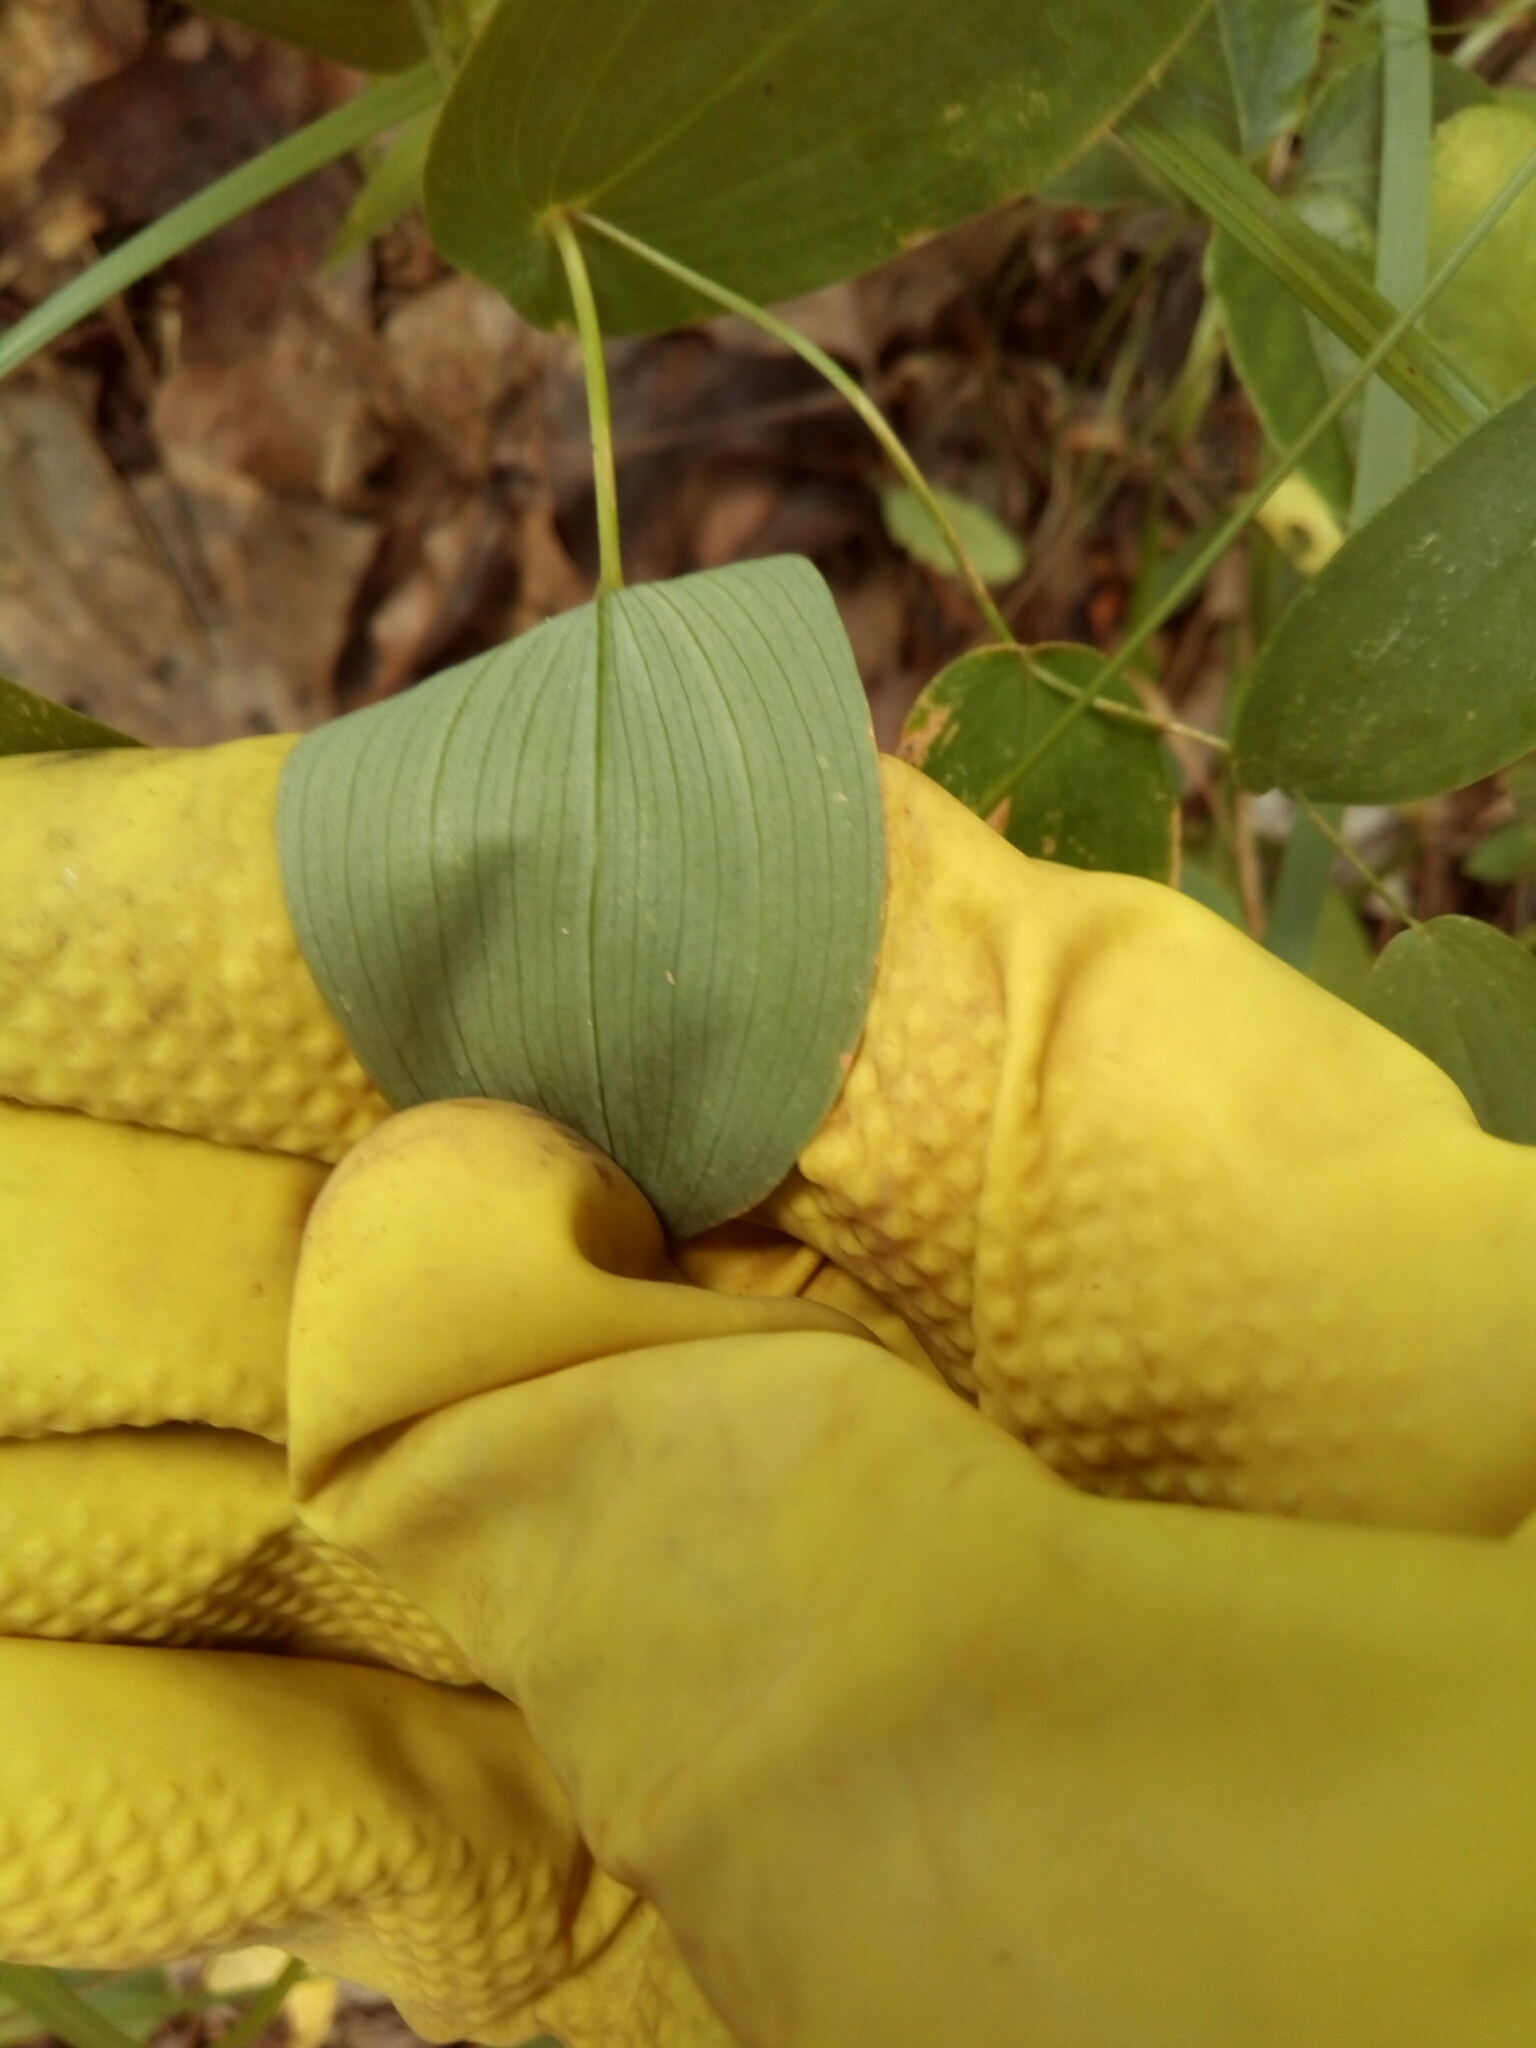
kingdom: Plantae
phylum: Tracheophyta
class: Liliopsida
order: Liliales
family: Colchicaceae
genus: Uvularia
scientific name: Uvularia perfoliata
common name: Perfoliate bellwort
